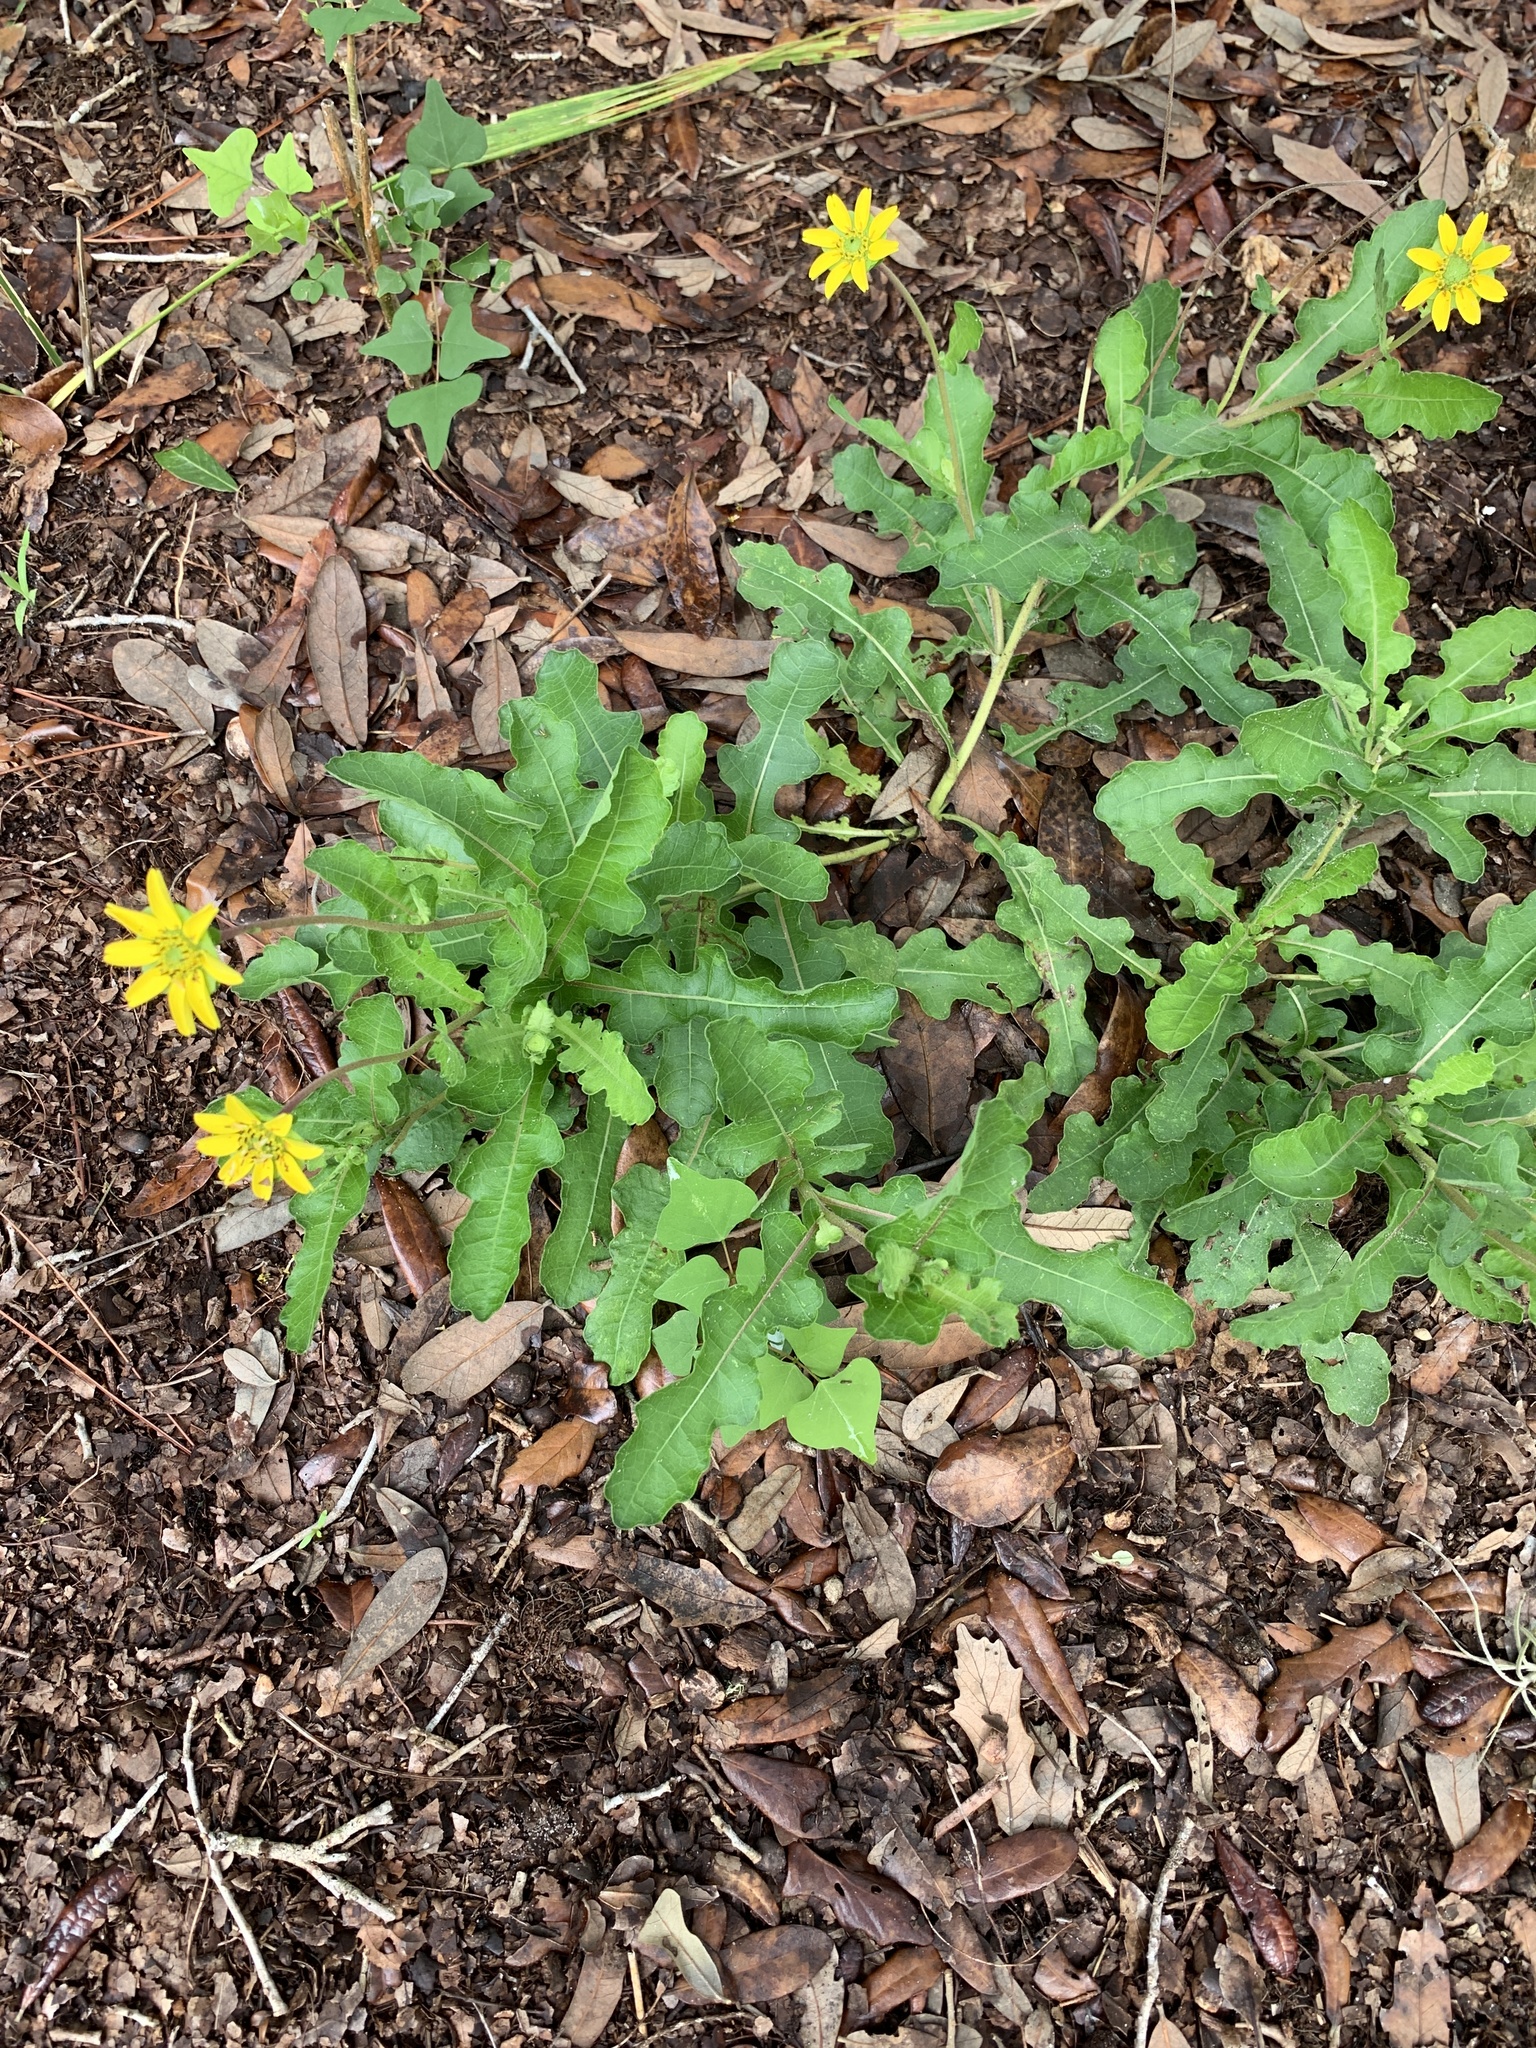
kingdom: Plantae
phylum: Tracheophyta
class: Magnoliopsida
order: Asterales
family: Asteraceae
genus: Berlandiera
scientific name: Berlandiera subacaulis
